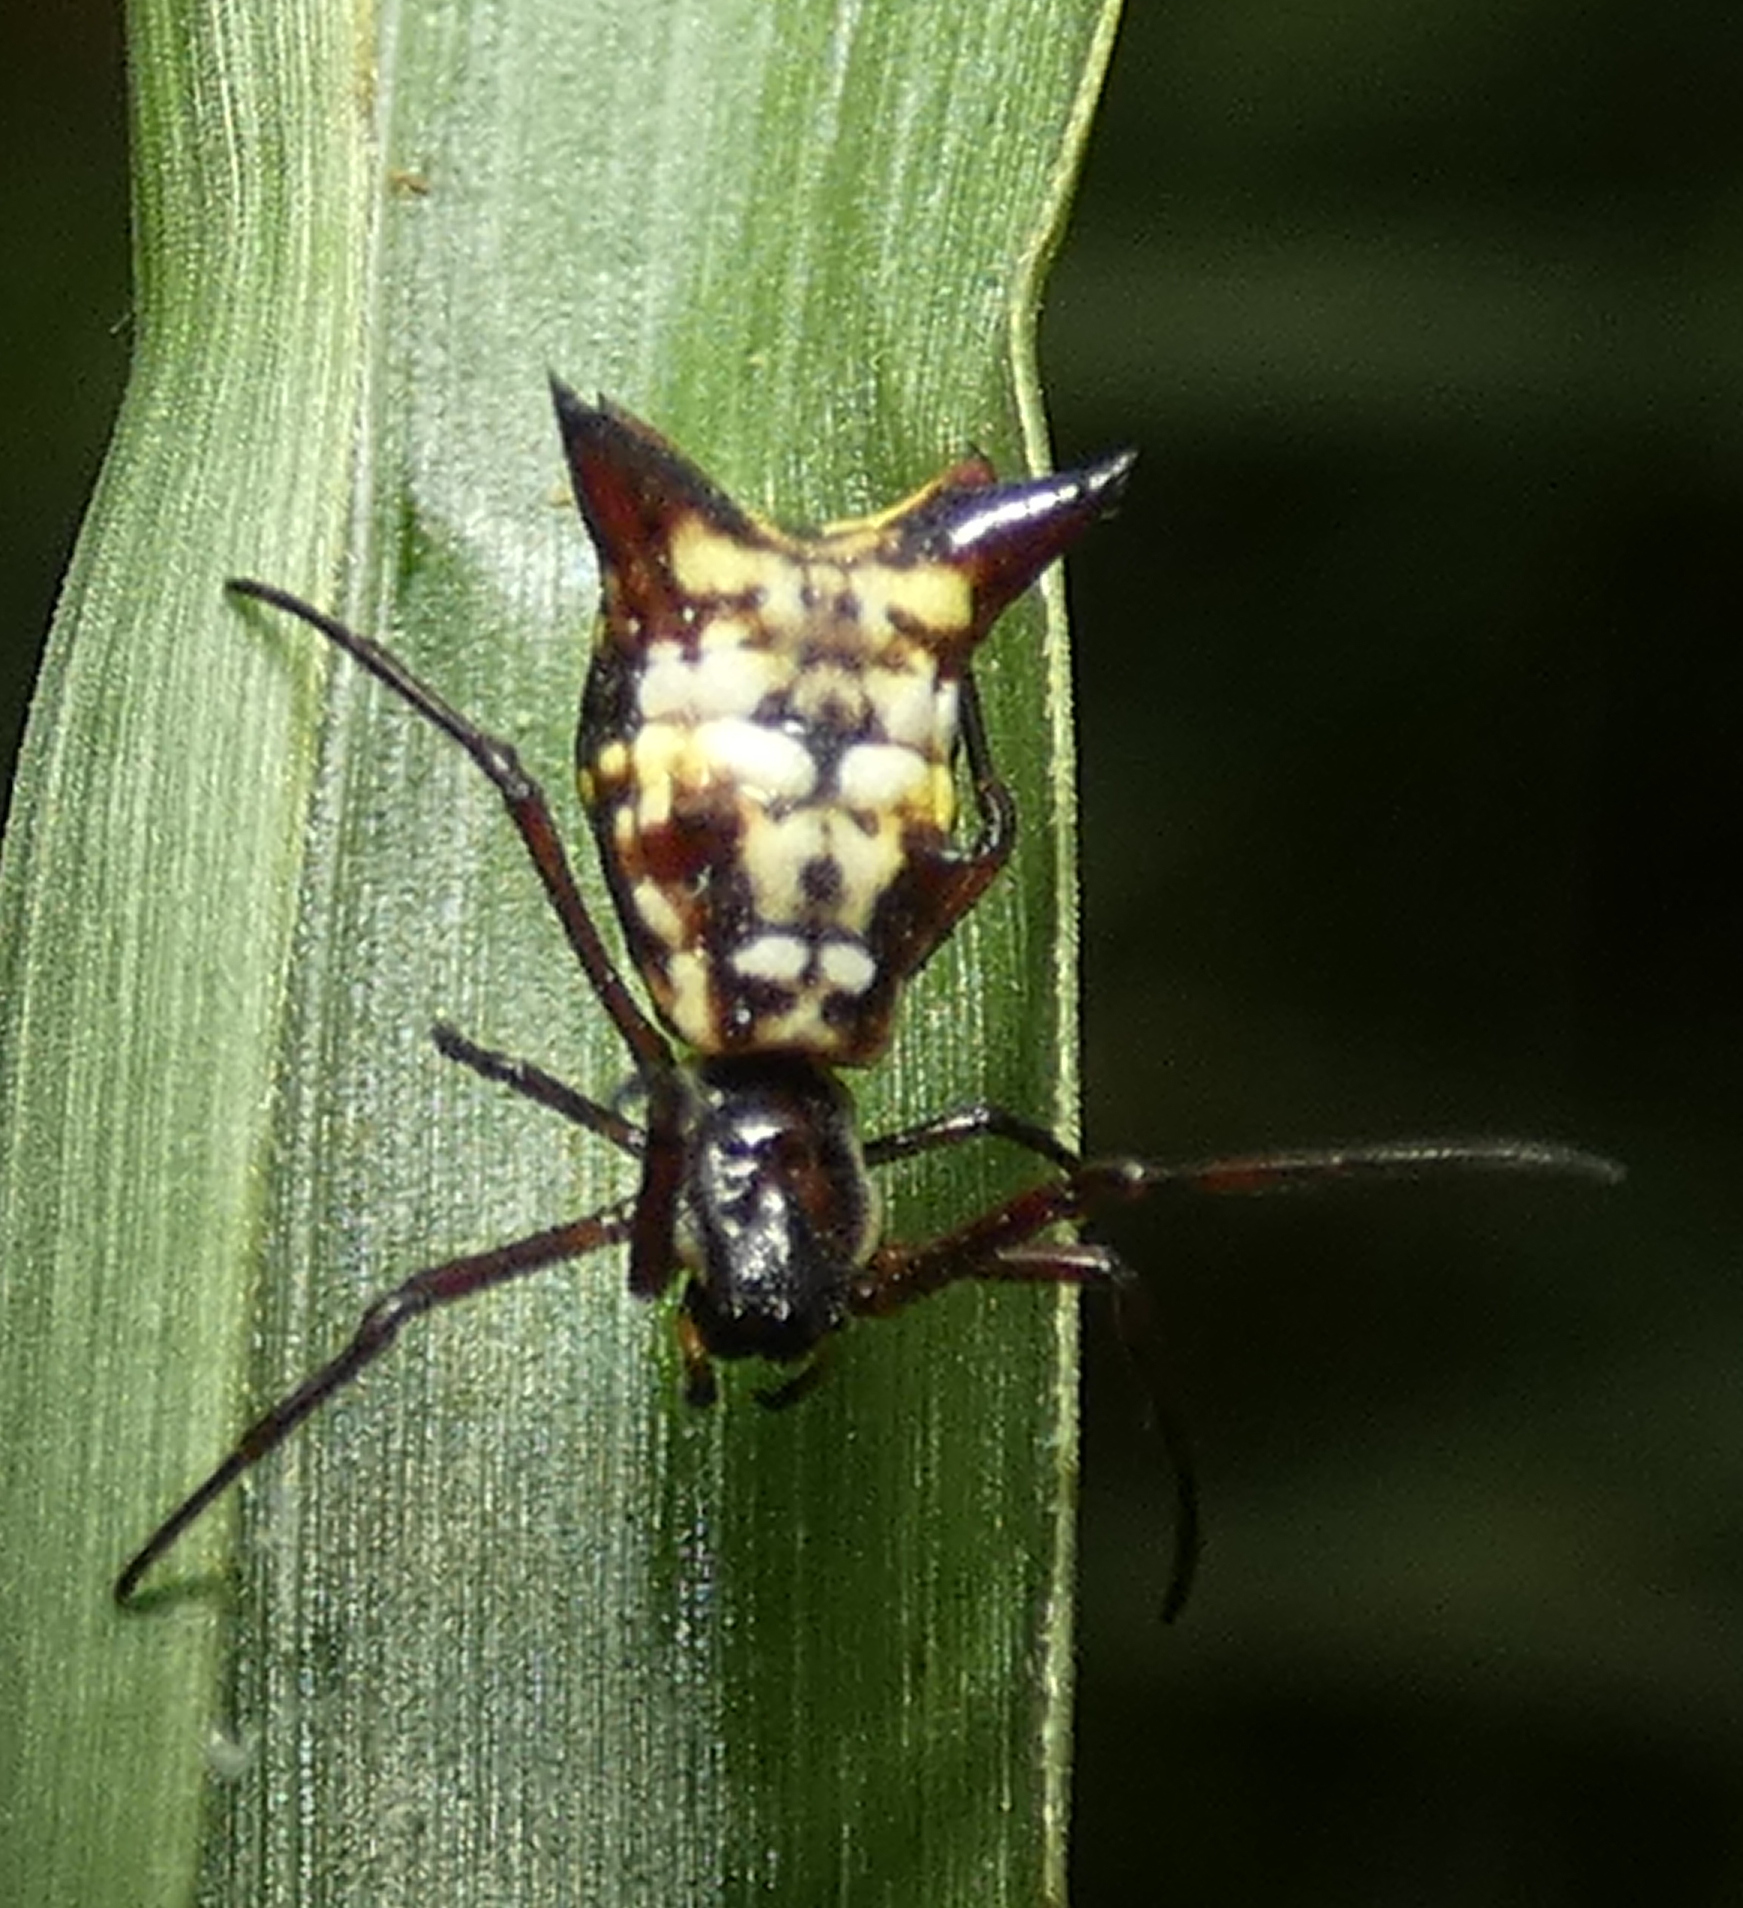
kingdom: Animalia
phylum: Arthropoda
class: Arachnida
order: Araneae
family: Araneidae
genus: Micrathena
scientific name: Micrathena fissispina
